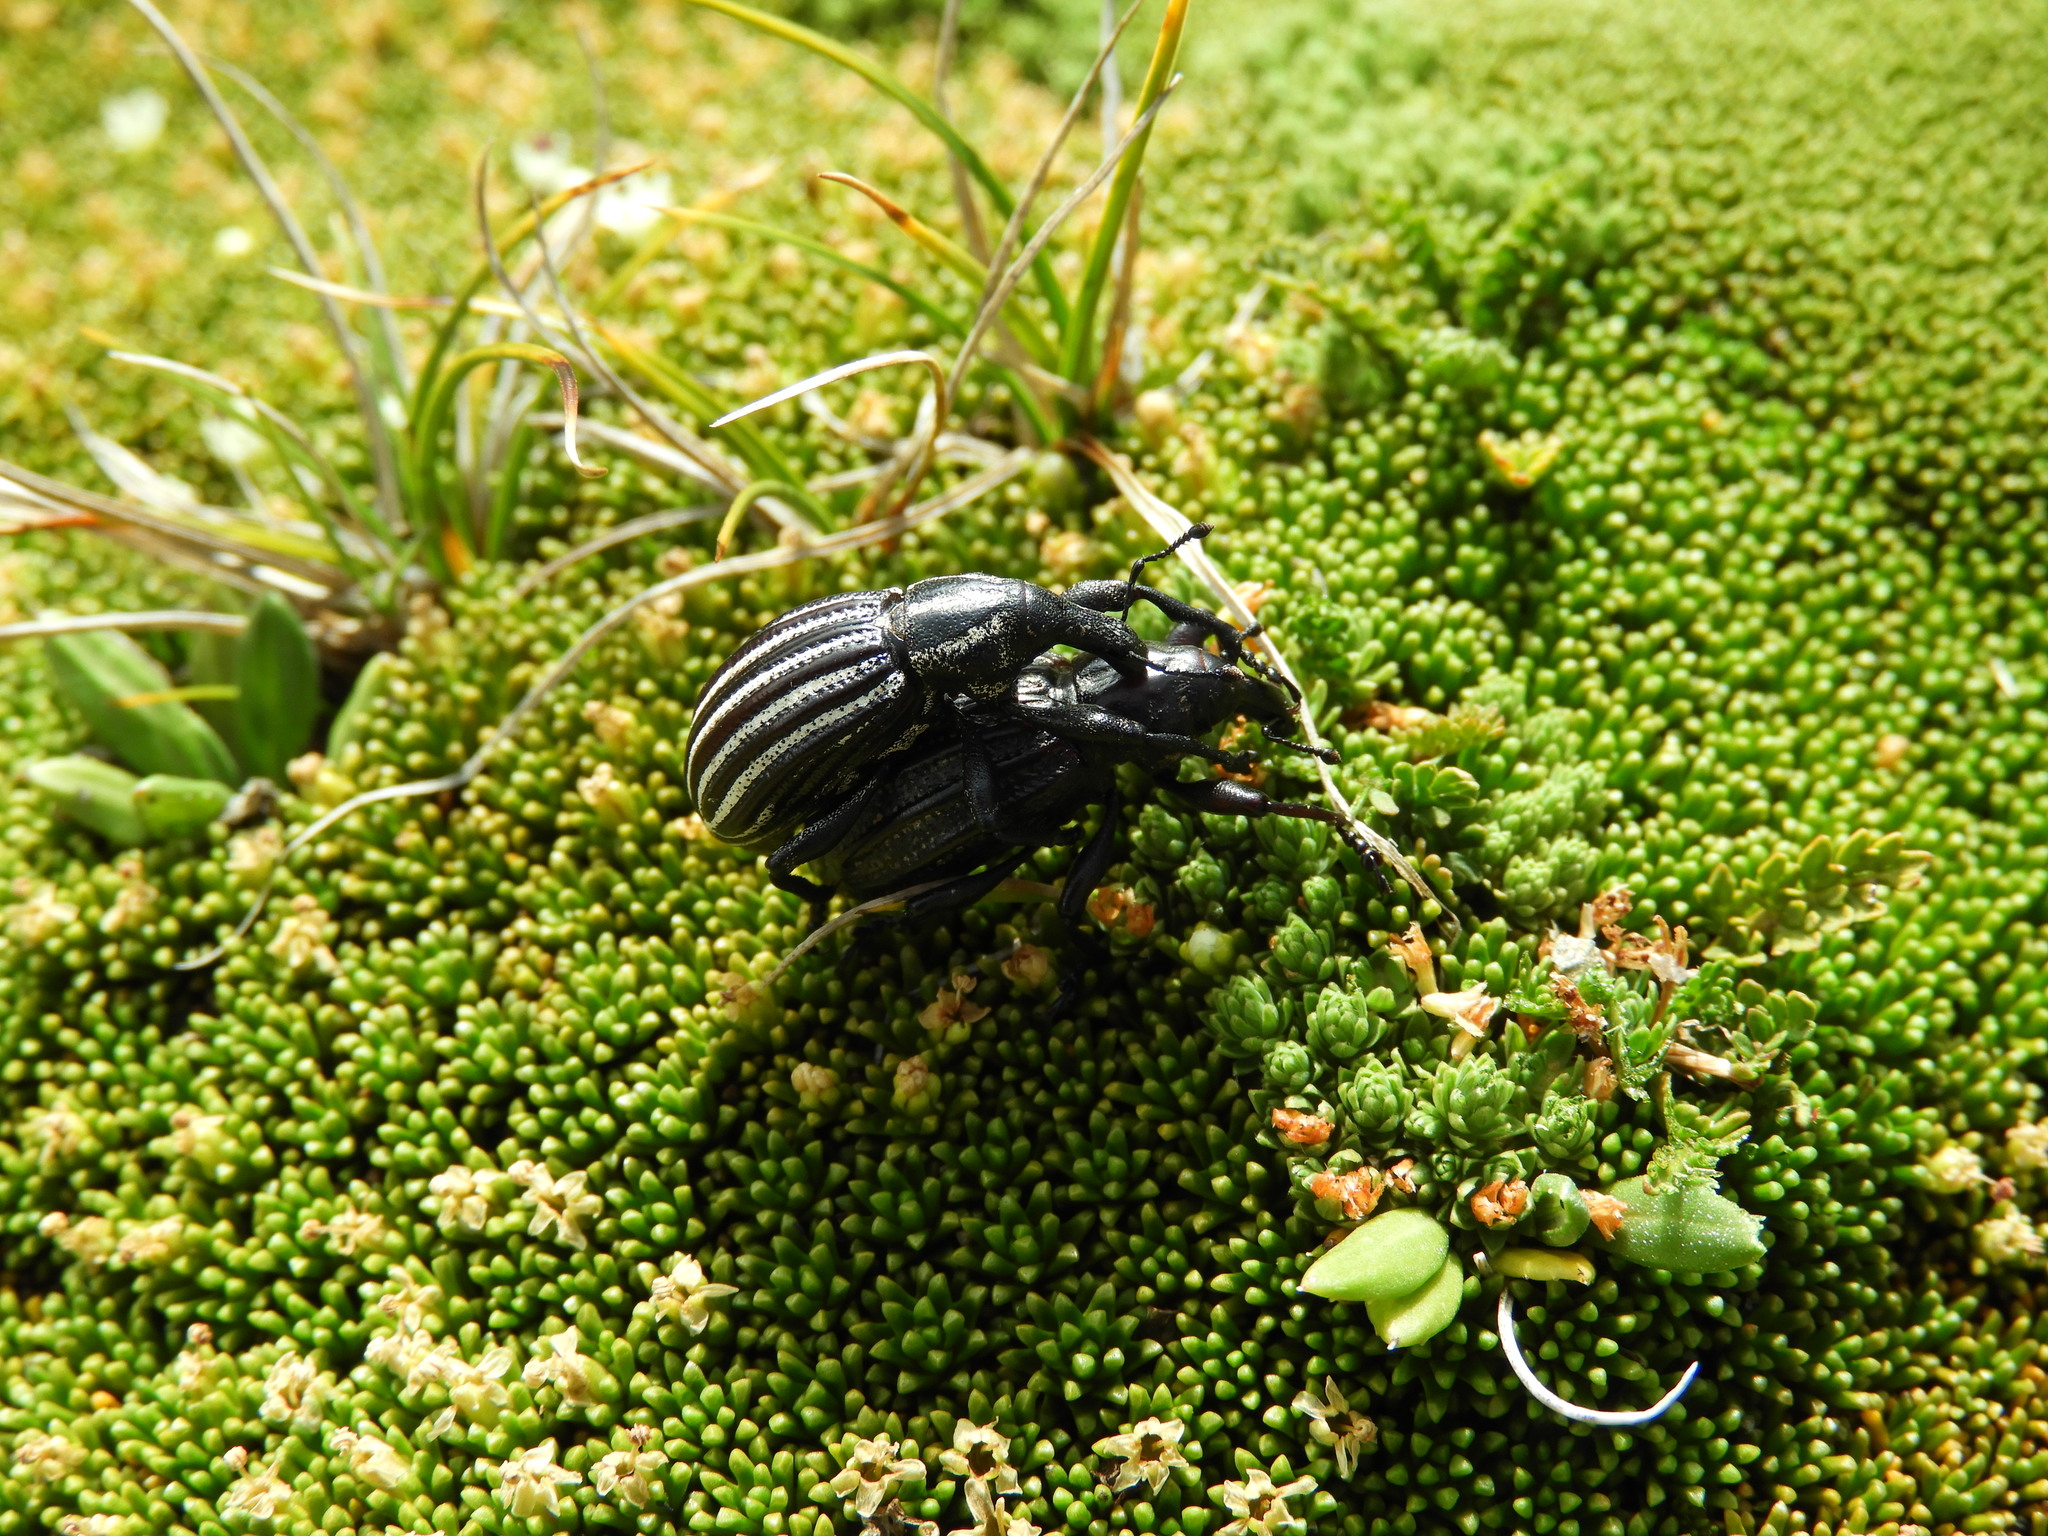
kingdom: Animalia
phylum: Arthropoda
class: Insecta
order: Coleoptera
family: Curculionidae
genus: Lyperobius
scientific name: Lyperobius townsendii
